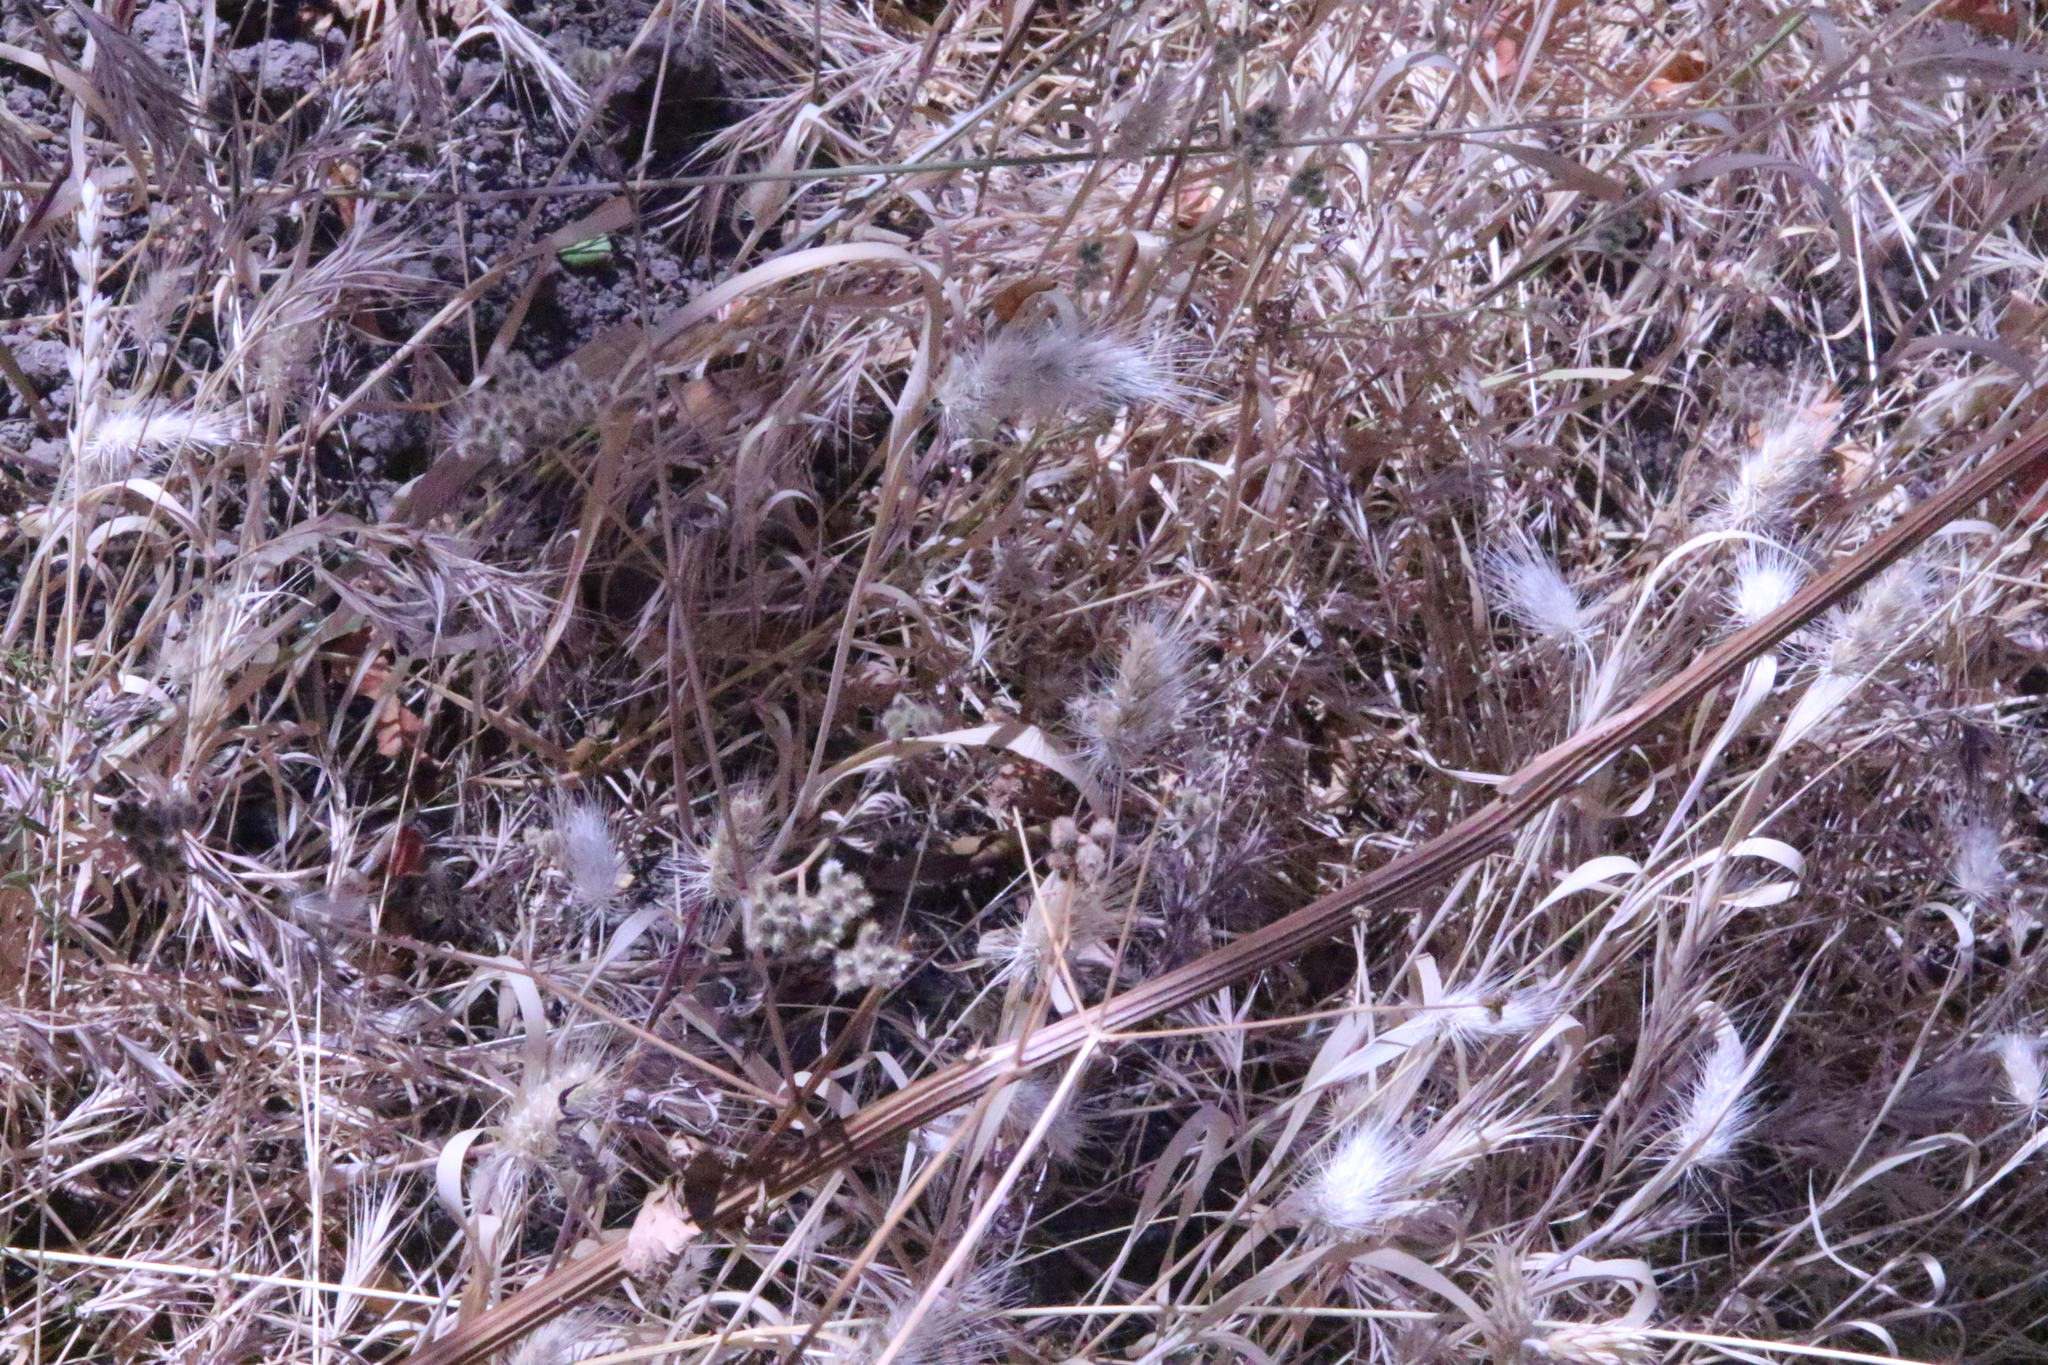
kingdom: Plantae
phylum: Tracheophyta
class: Liliopsida
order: Poales
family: Poaceae
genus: Cynosurus
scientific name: Cynosurus echinatus
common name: Rough dog's-tail
